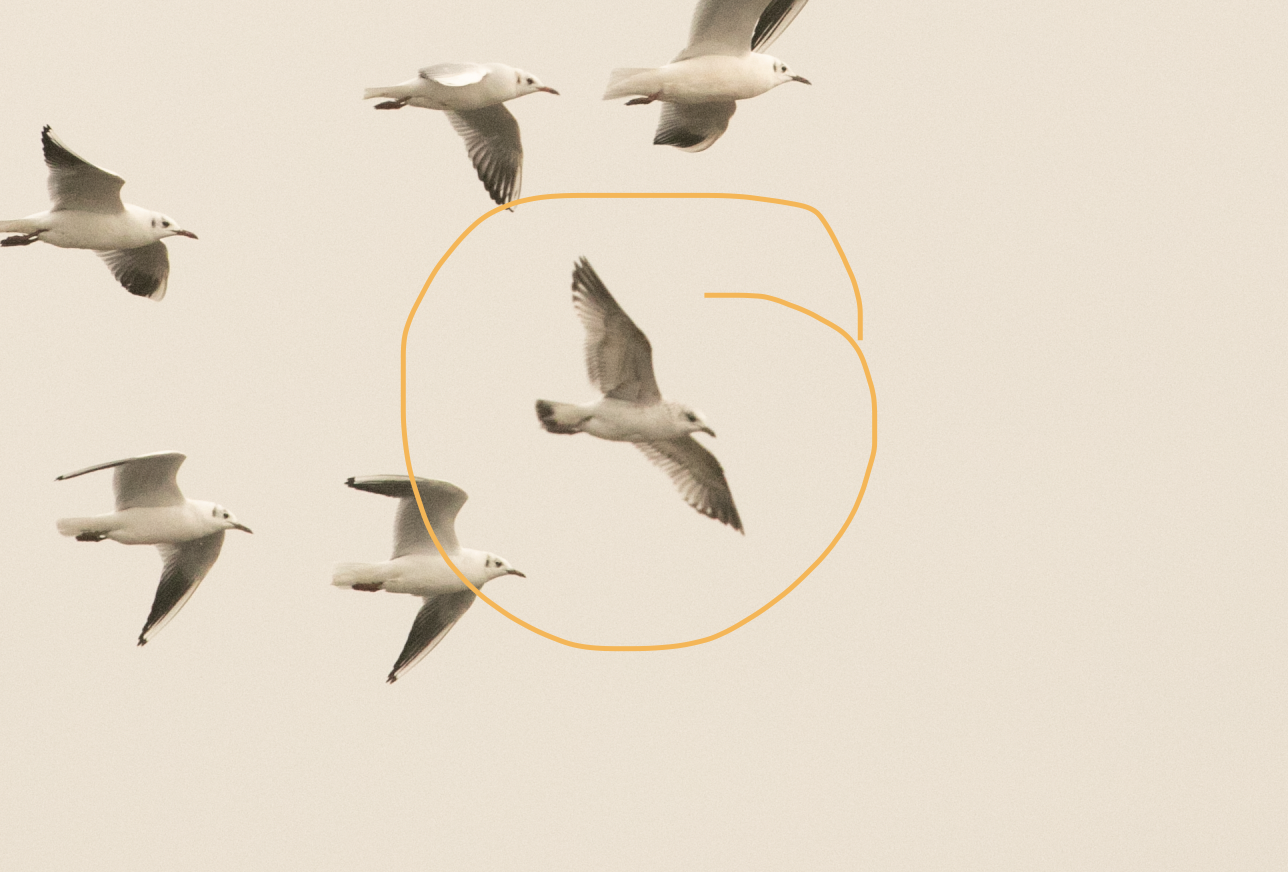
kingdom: Animalia
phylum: Chordata
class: Aves
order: Charadriiformes
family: Laridae
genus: Larus
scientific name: Larus canus
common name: Mew gull
